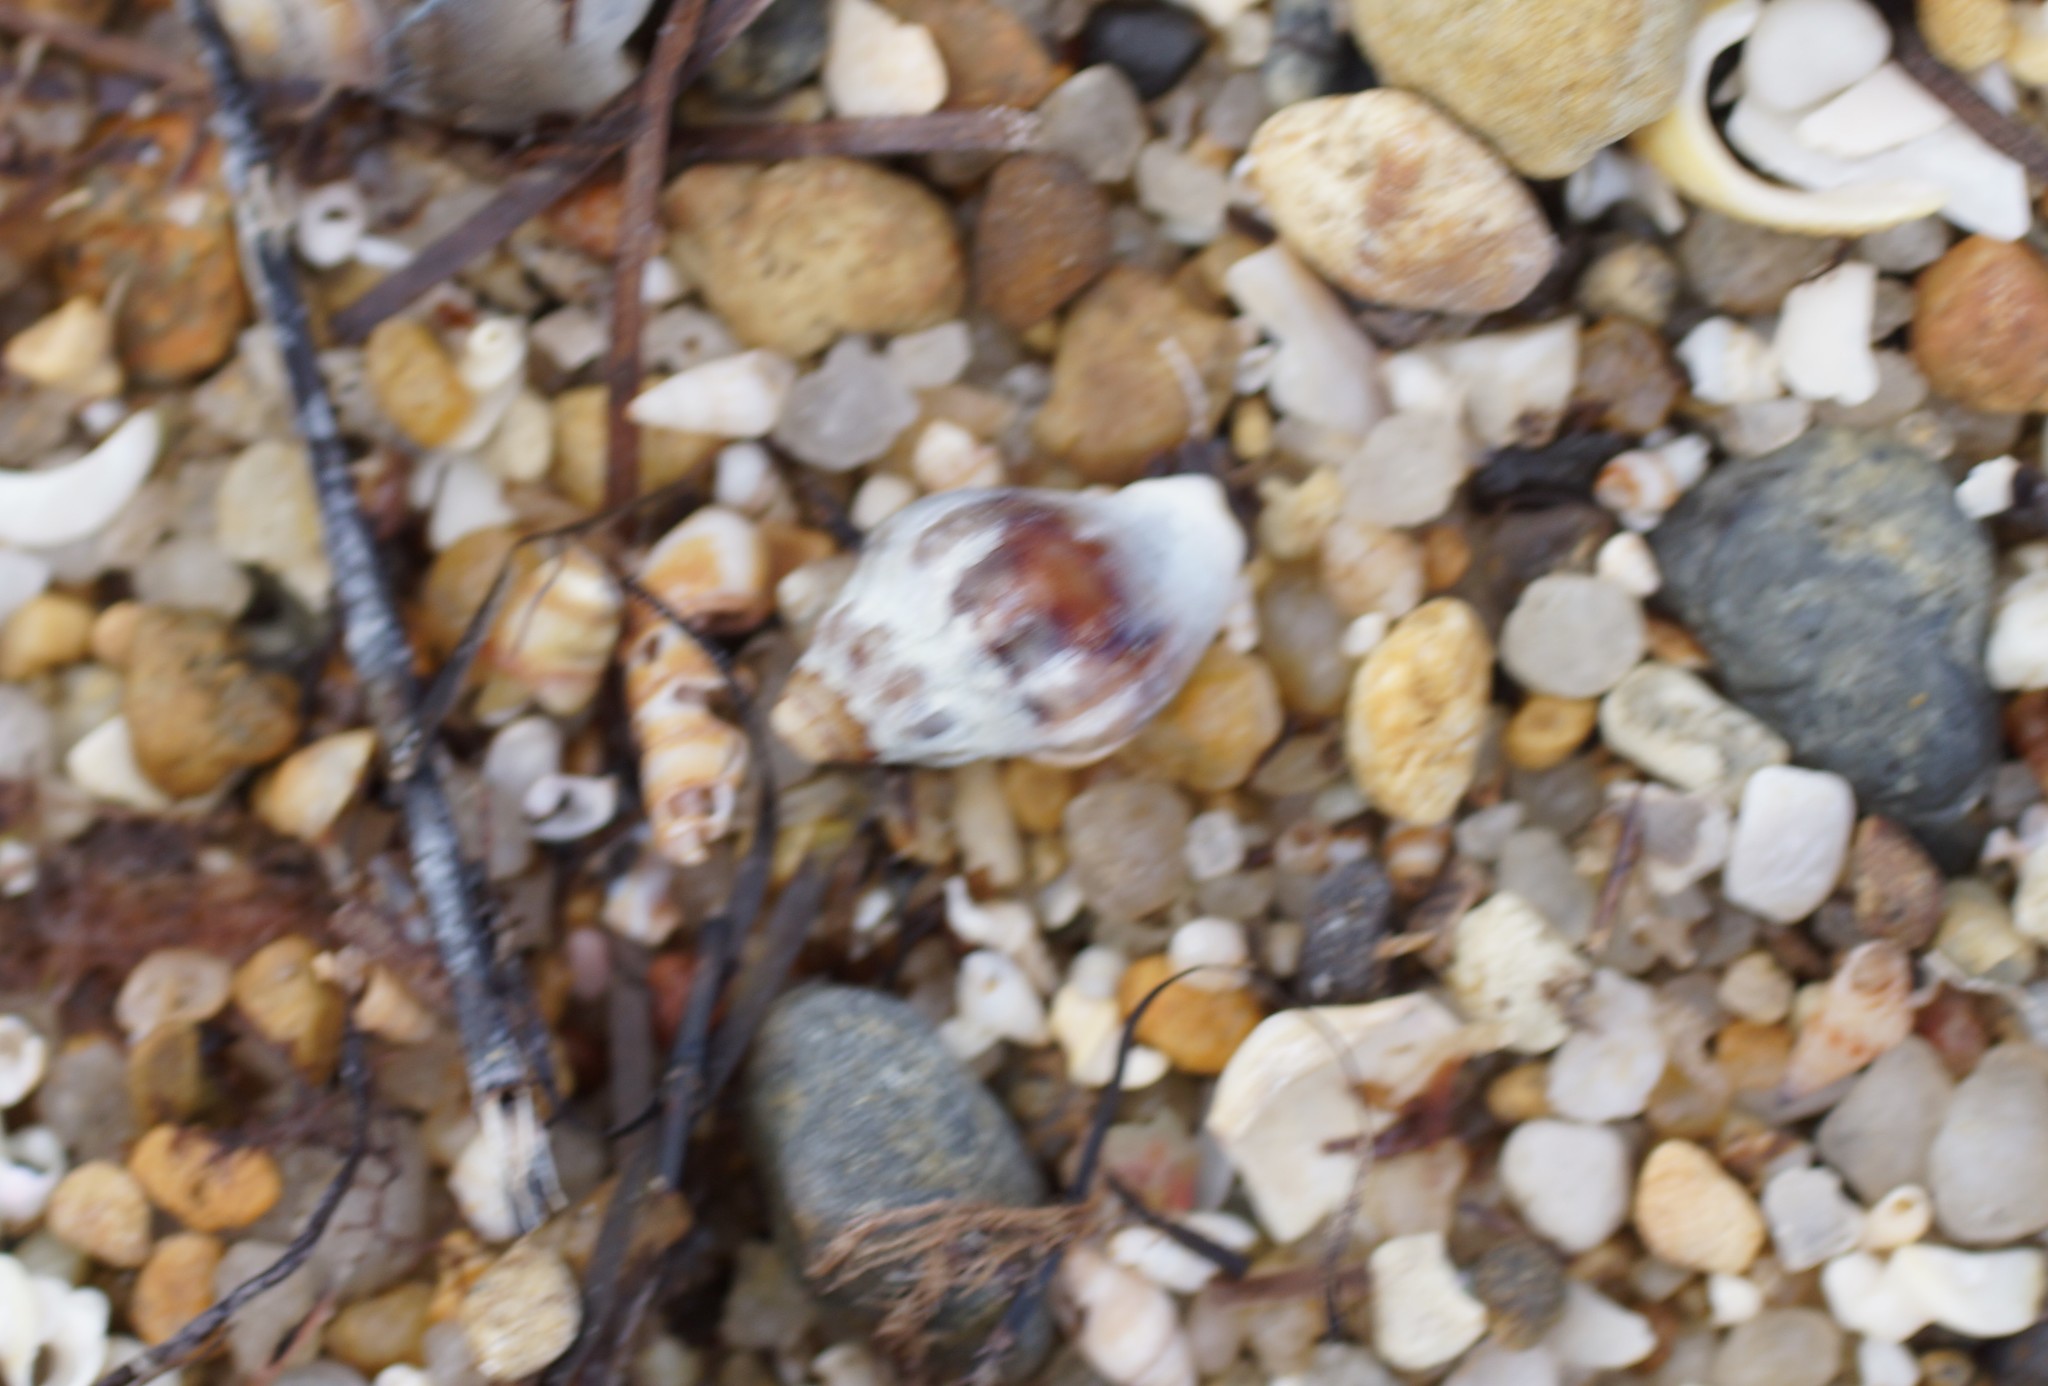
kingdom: Animalia
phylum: Mollusca
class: Gastropoda
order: Neogastropoda
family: Cominellidae
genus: Cominella
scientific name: Cominella eburnea
